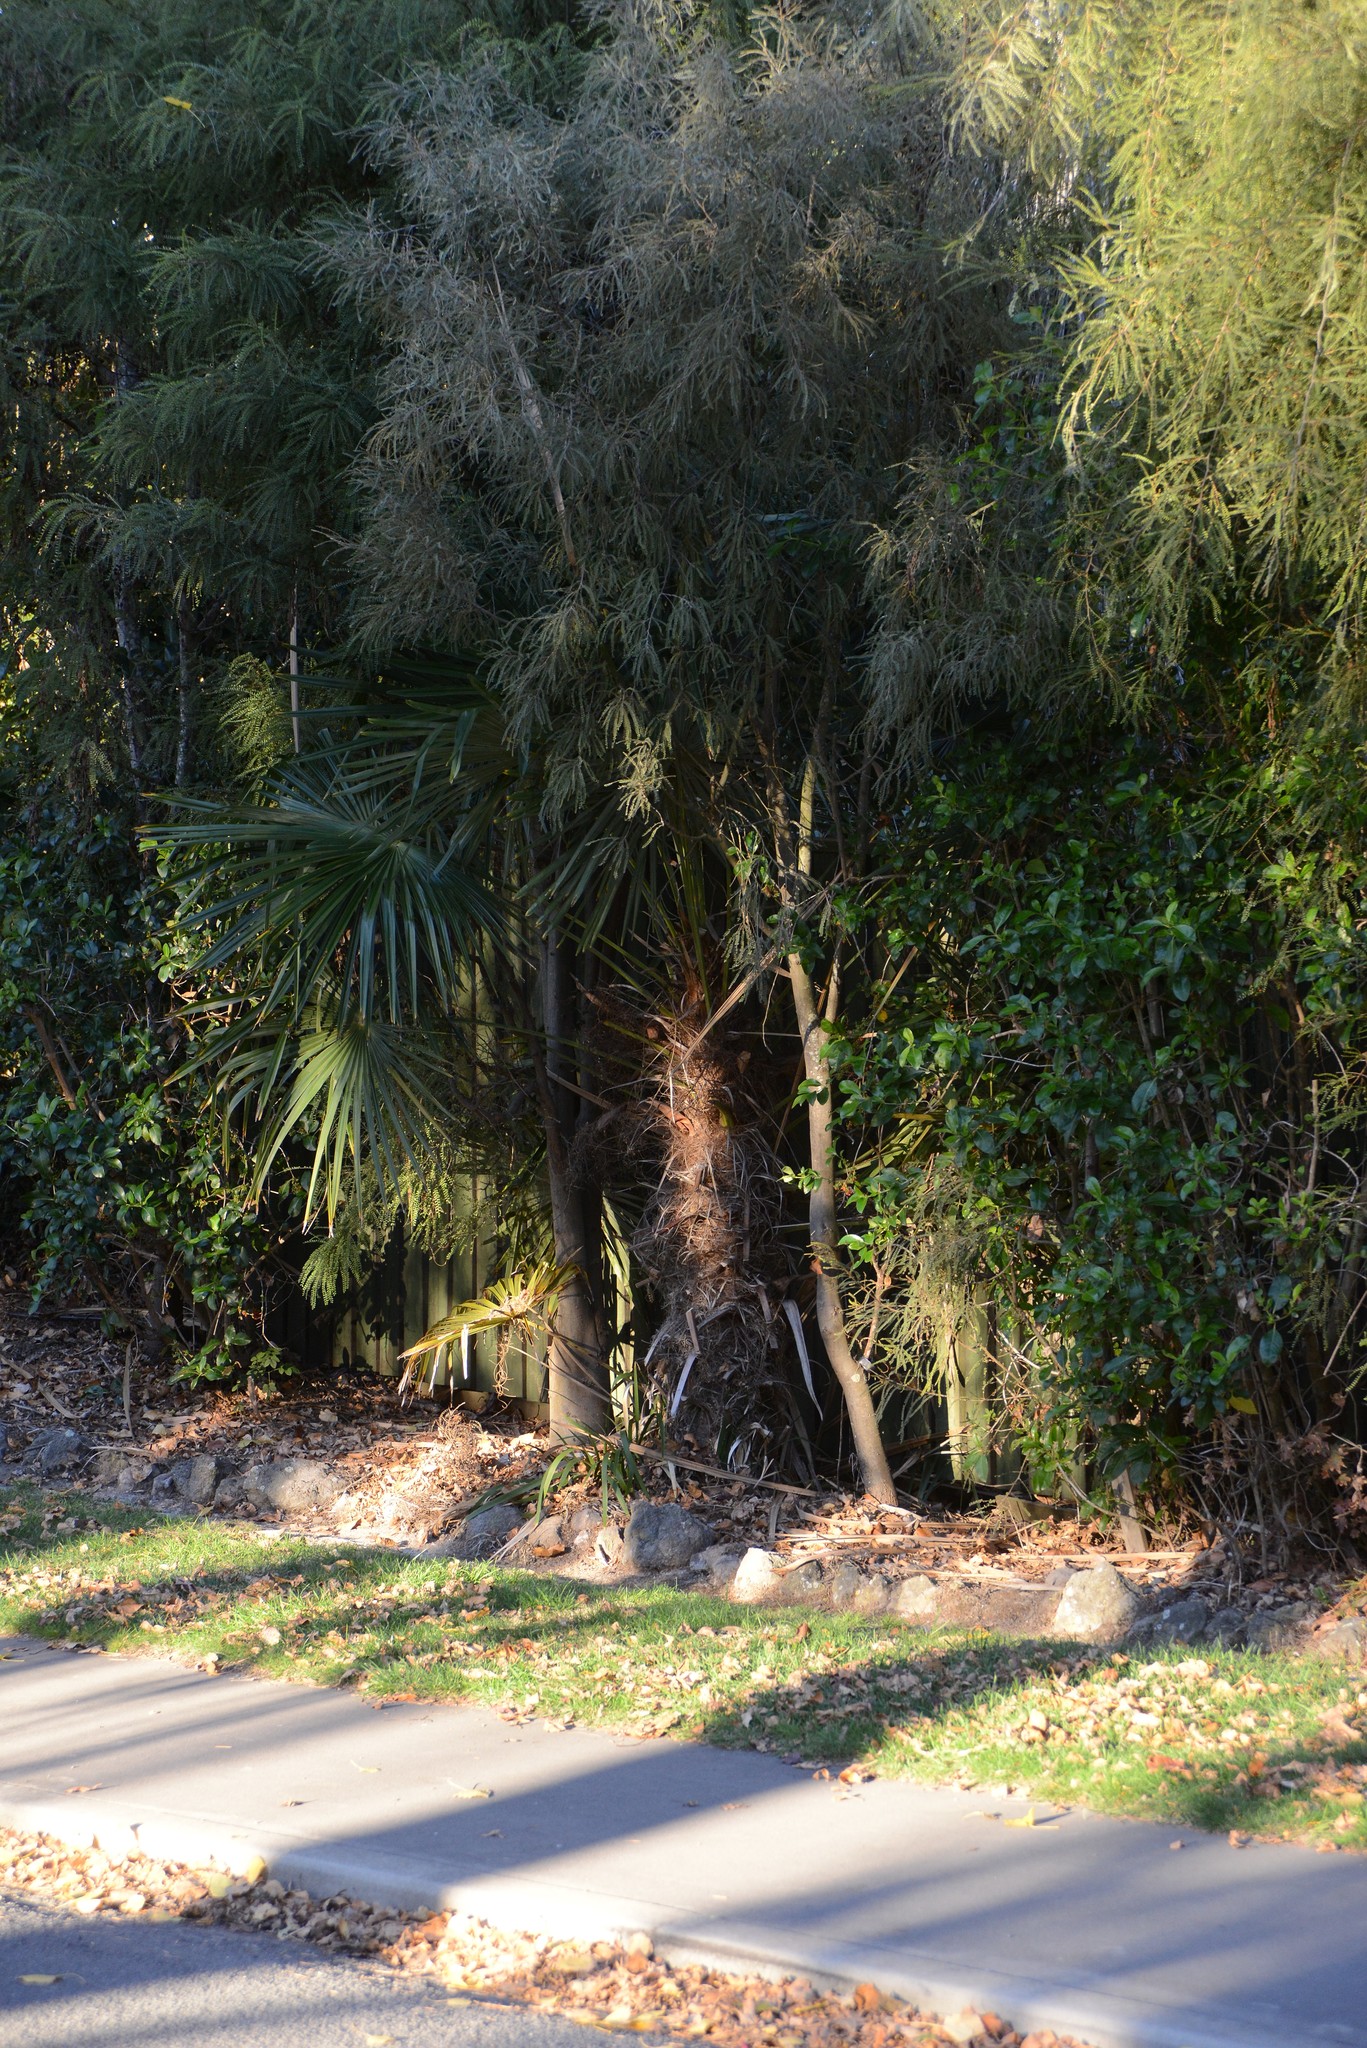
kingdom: Plantae
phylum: Tracheophyta
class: Liliopsida
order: Arecales
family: Arecaceae
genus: Trachycarpus
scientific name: Trachycarpus fortunei
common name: Chusan palm
